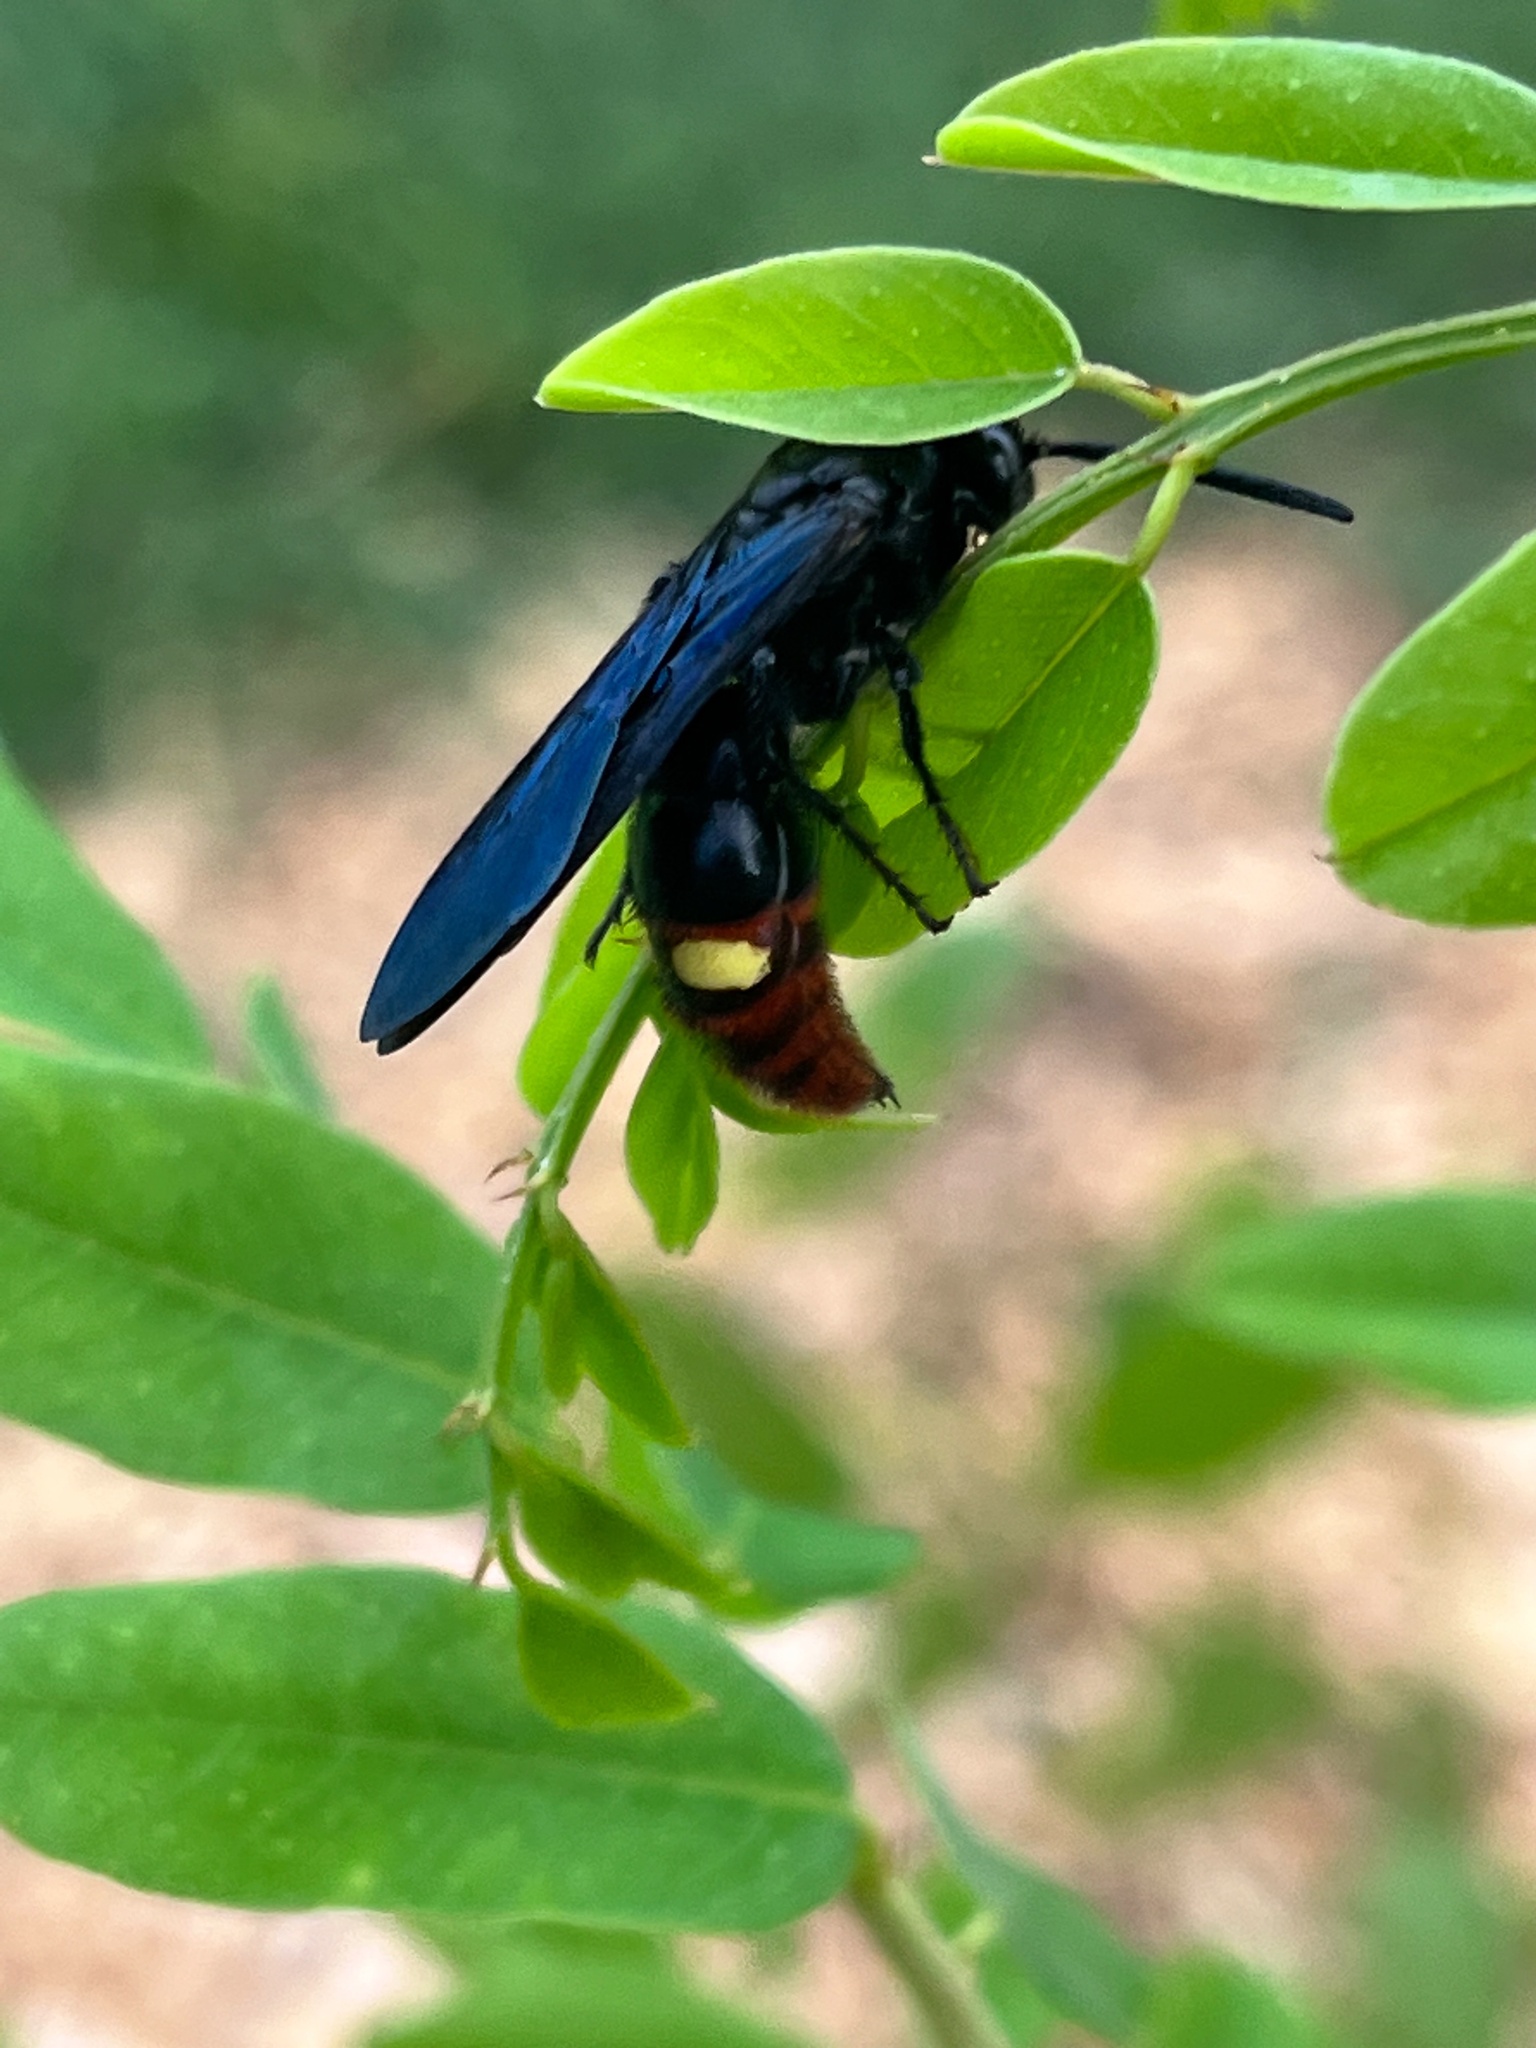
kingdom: Animalia
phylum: Arthropoda
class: Insecta
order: Hymenoptera
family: Scoliidae
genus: Scolia
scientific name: Scolia dubia
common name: Blue-winged scoliid wasp
